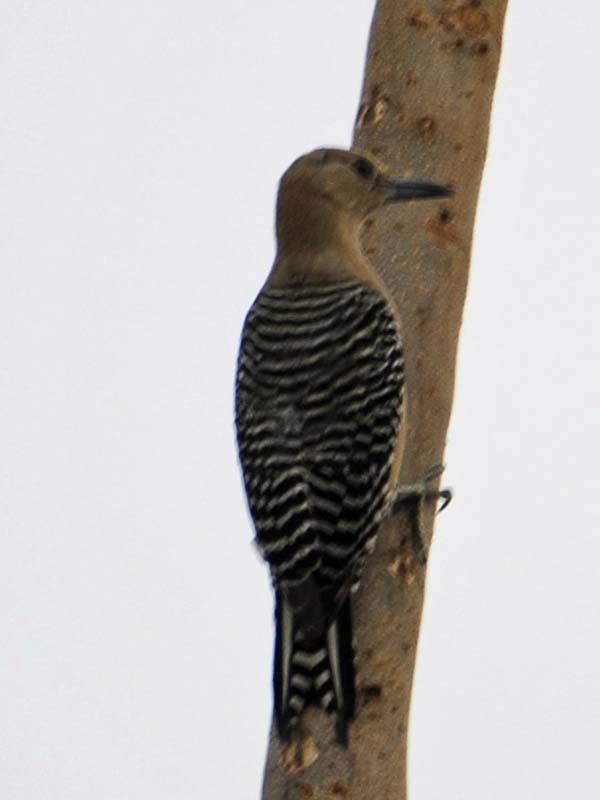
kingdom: Animalia
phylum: Chordata
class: Aves
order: Piciformes
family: Picidae
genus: Melanerpes
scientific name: Melanerpes uropygialis
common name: Gila woodpecker
